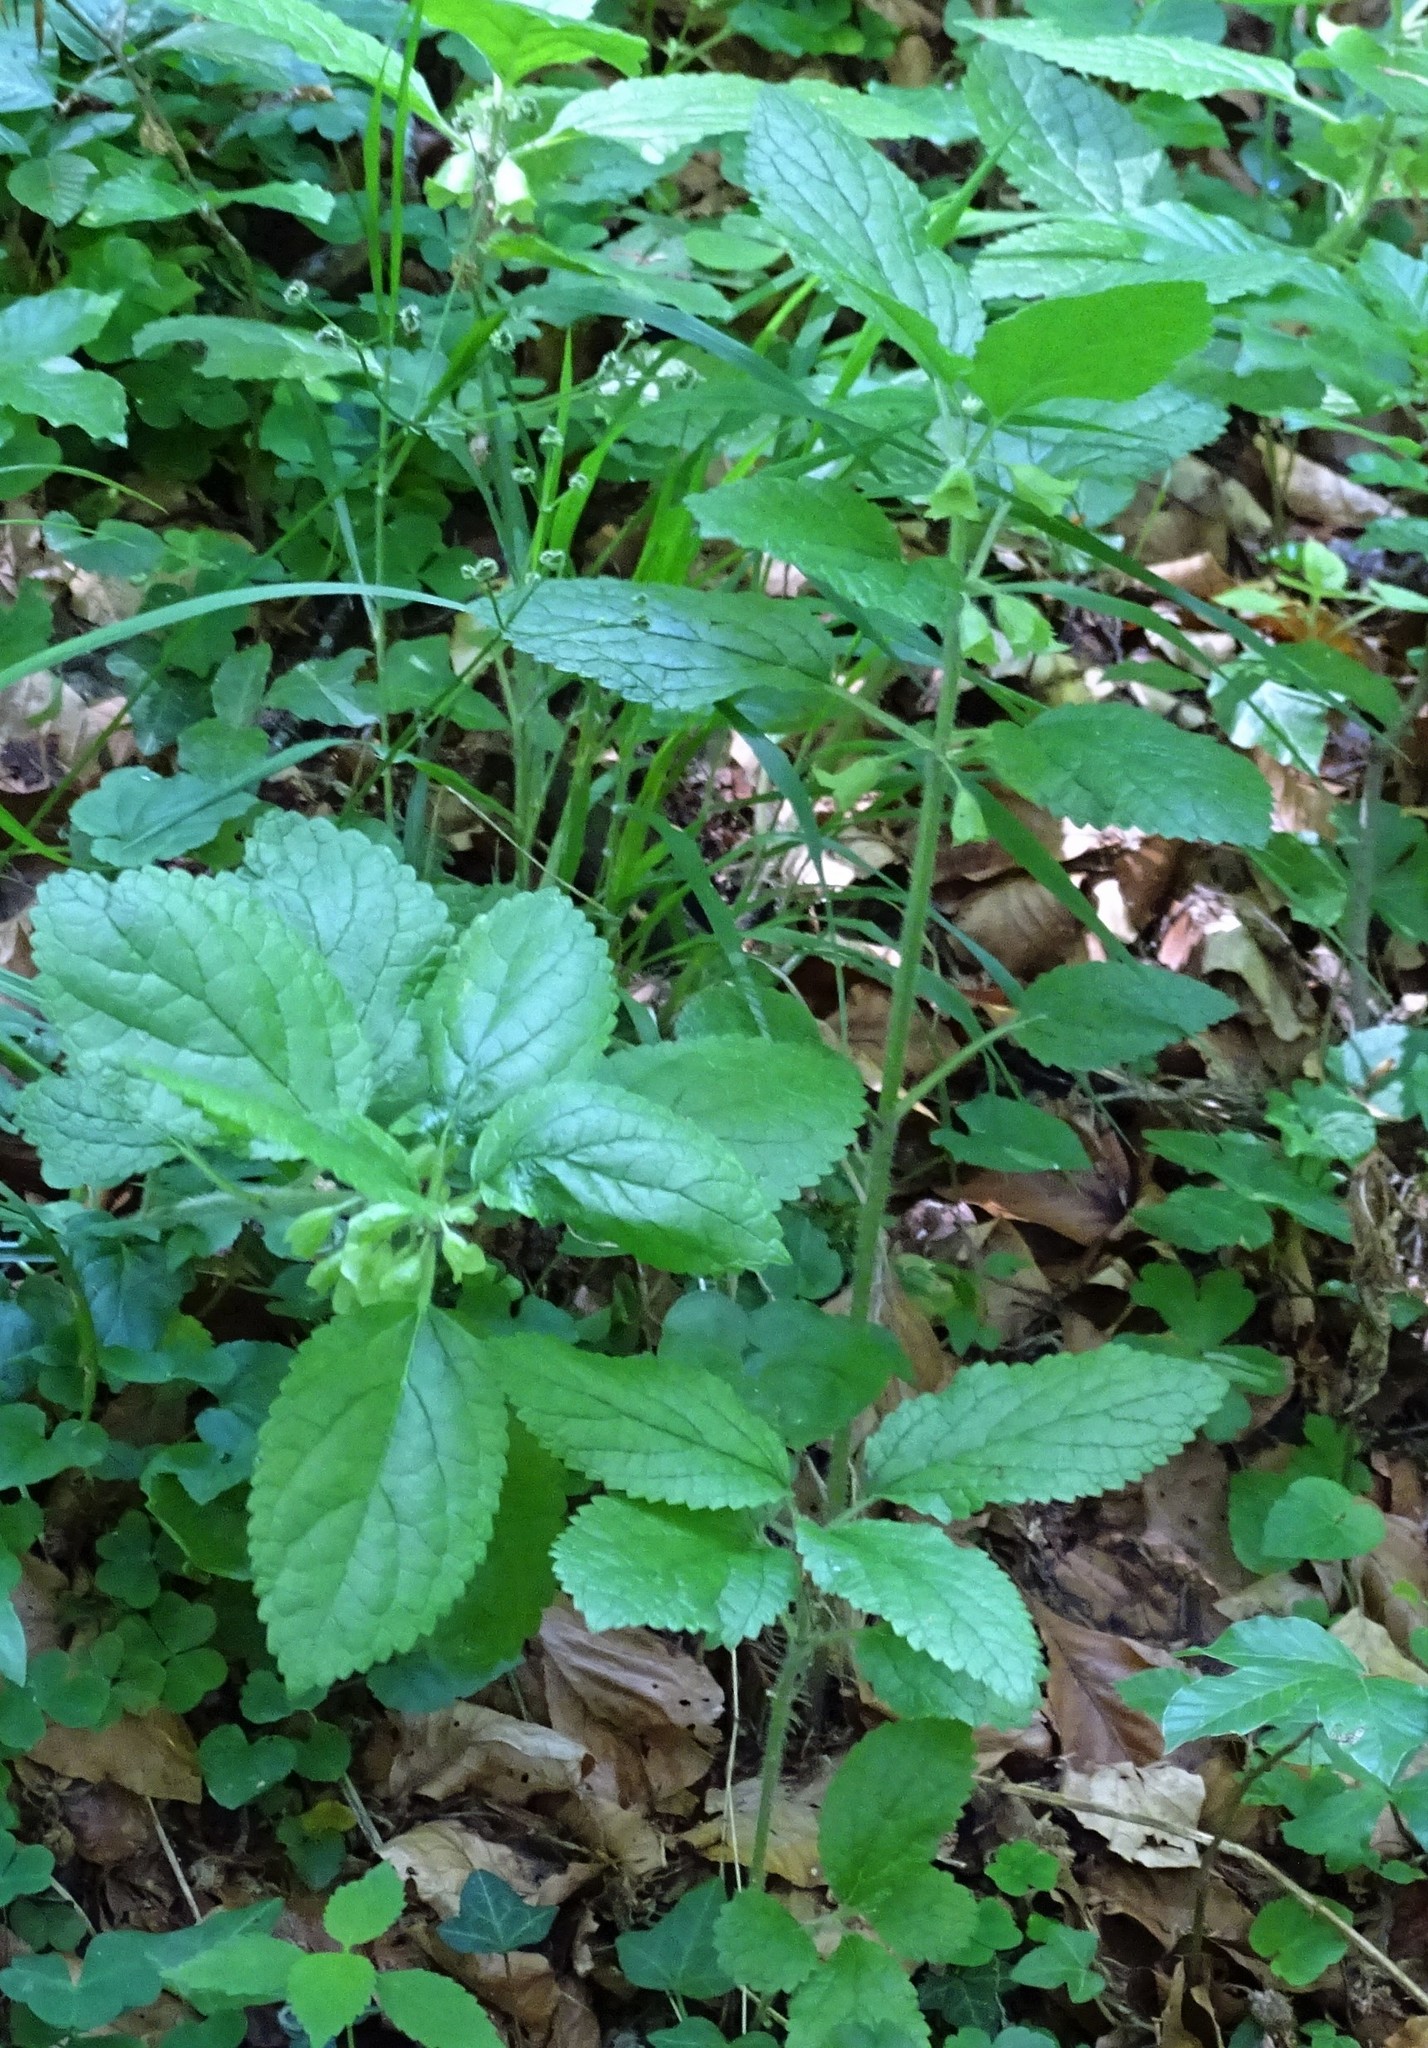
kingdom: Plantae
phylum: Tracheophyta
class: Magnoliopsida
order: Lamiales
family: Lamiaceae
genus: Melittis
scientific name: Melittis melissophyllum
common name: Bastard balm
